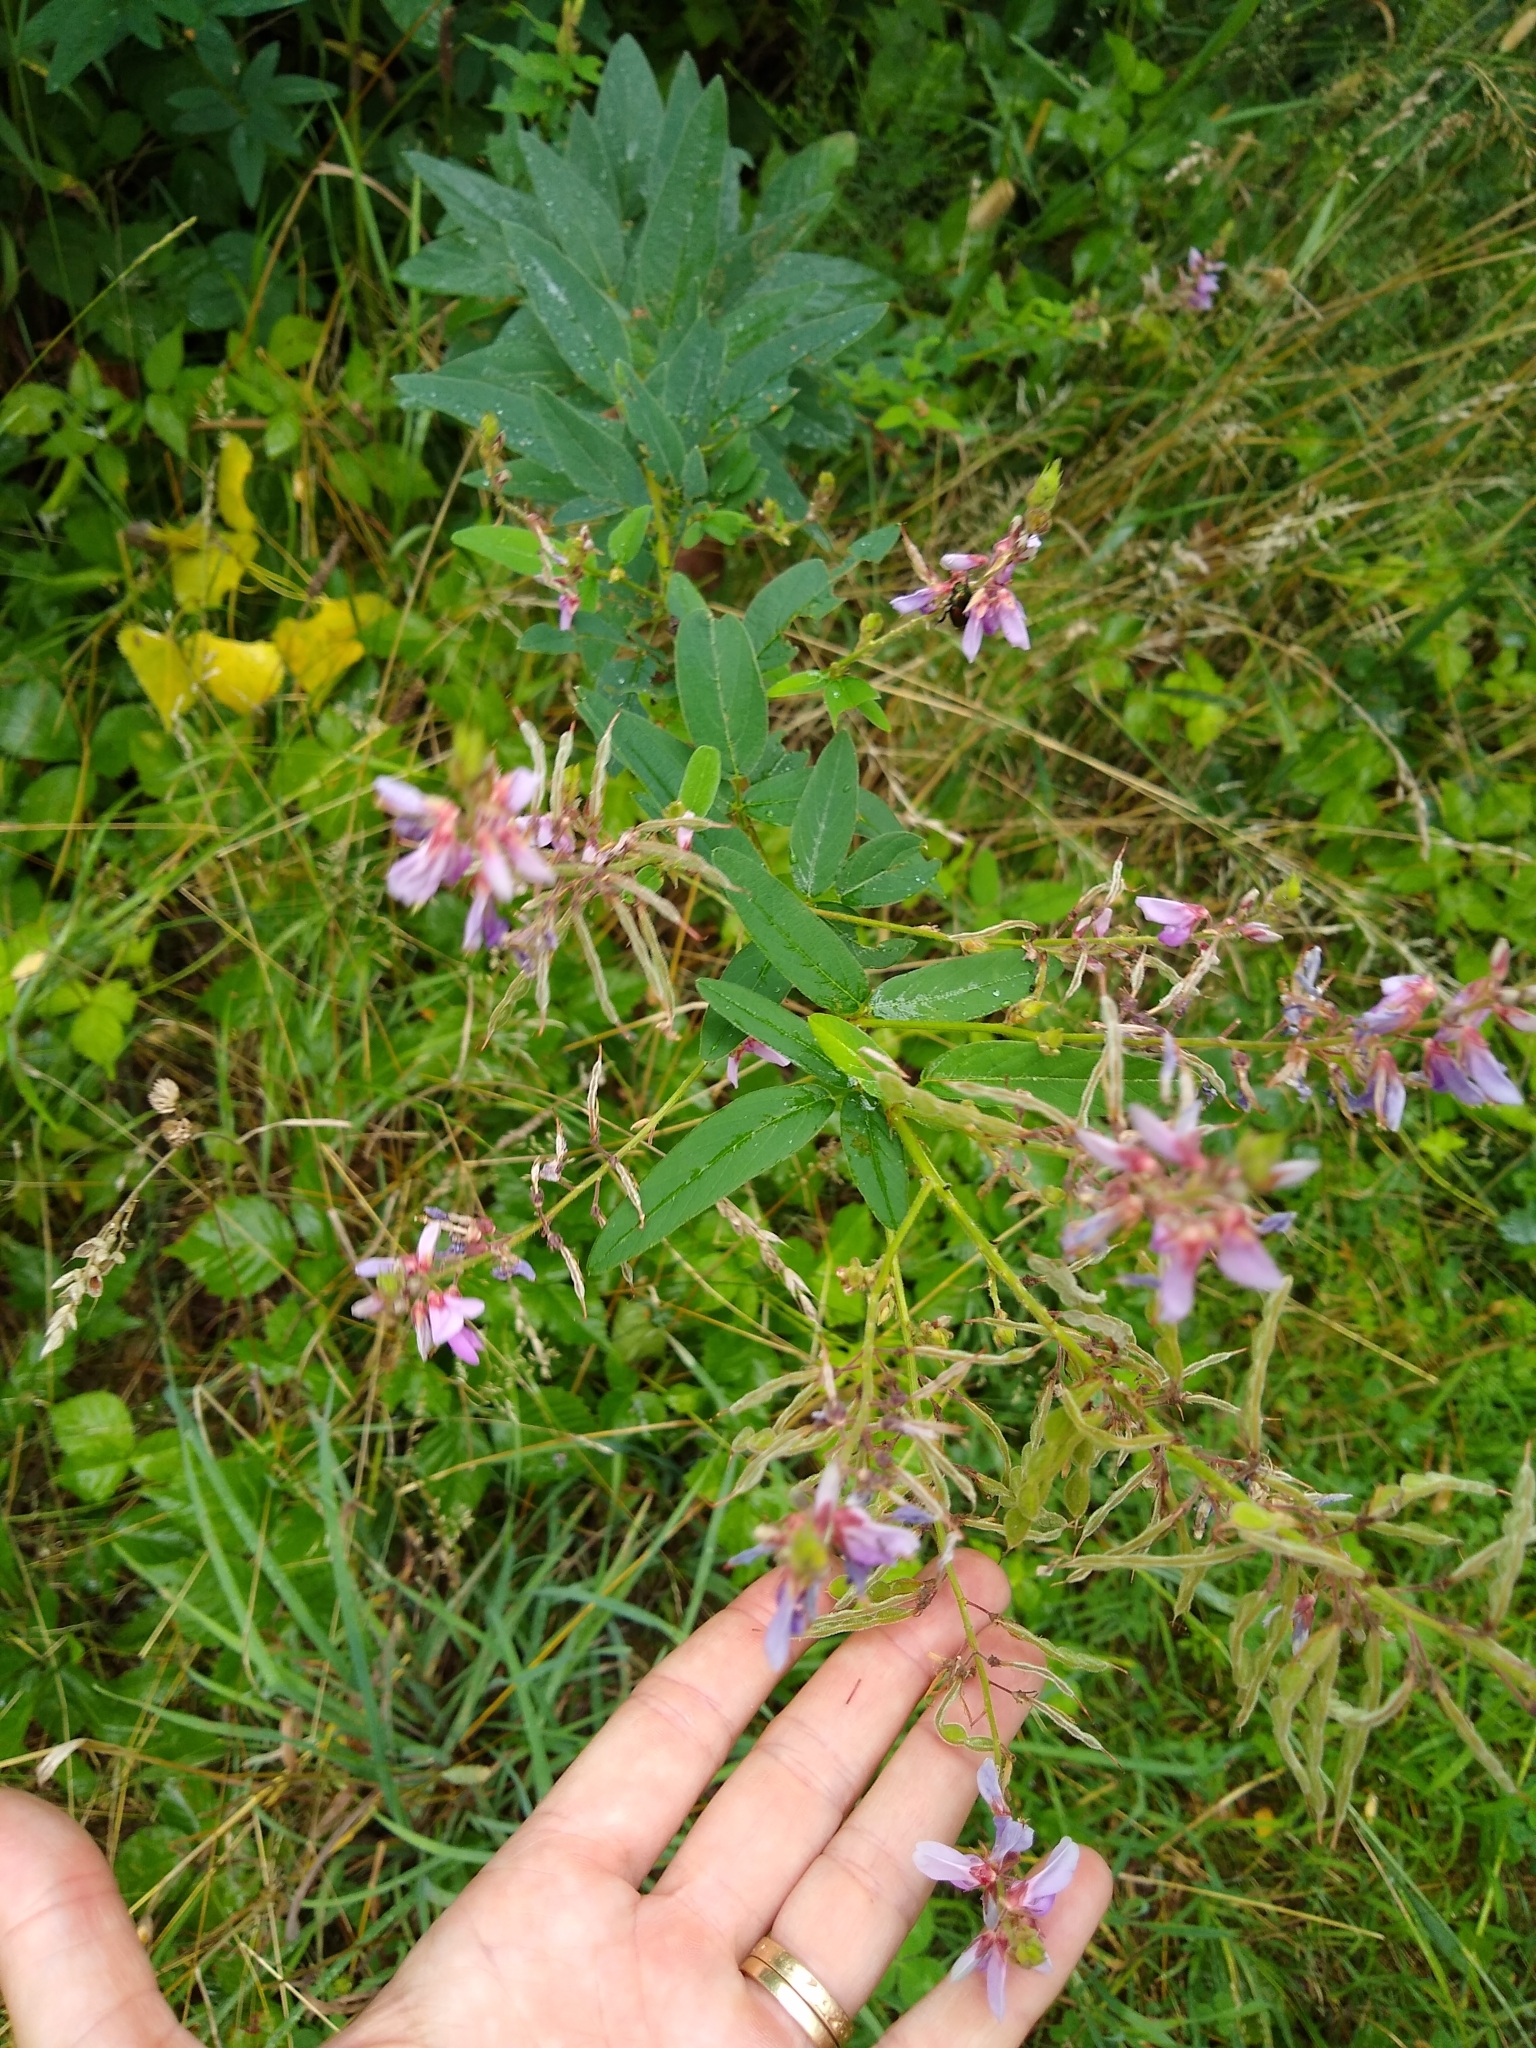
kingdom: Plantae
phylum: Tracheophyta
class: Magnoliopsida
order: Fabales
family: Fabaceae
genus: Desmodium
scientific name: Desmodium canadense
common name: Canada tick-trefoil
